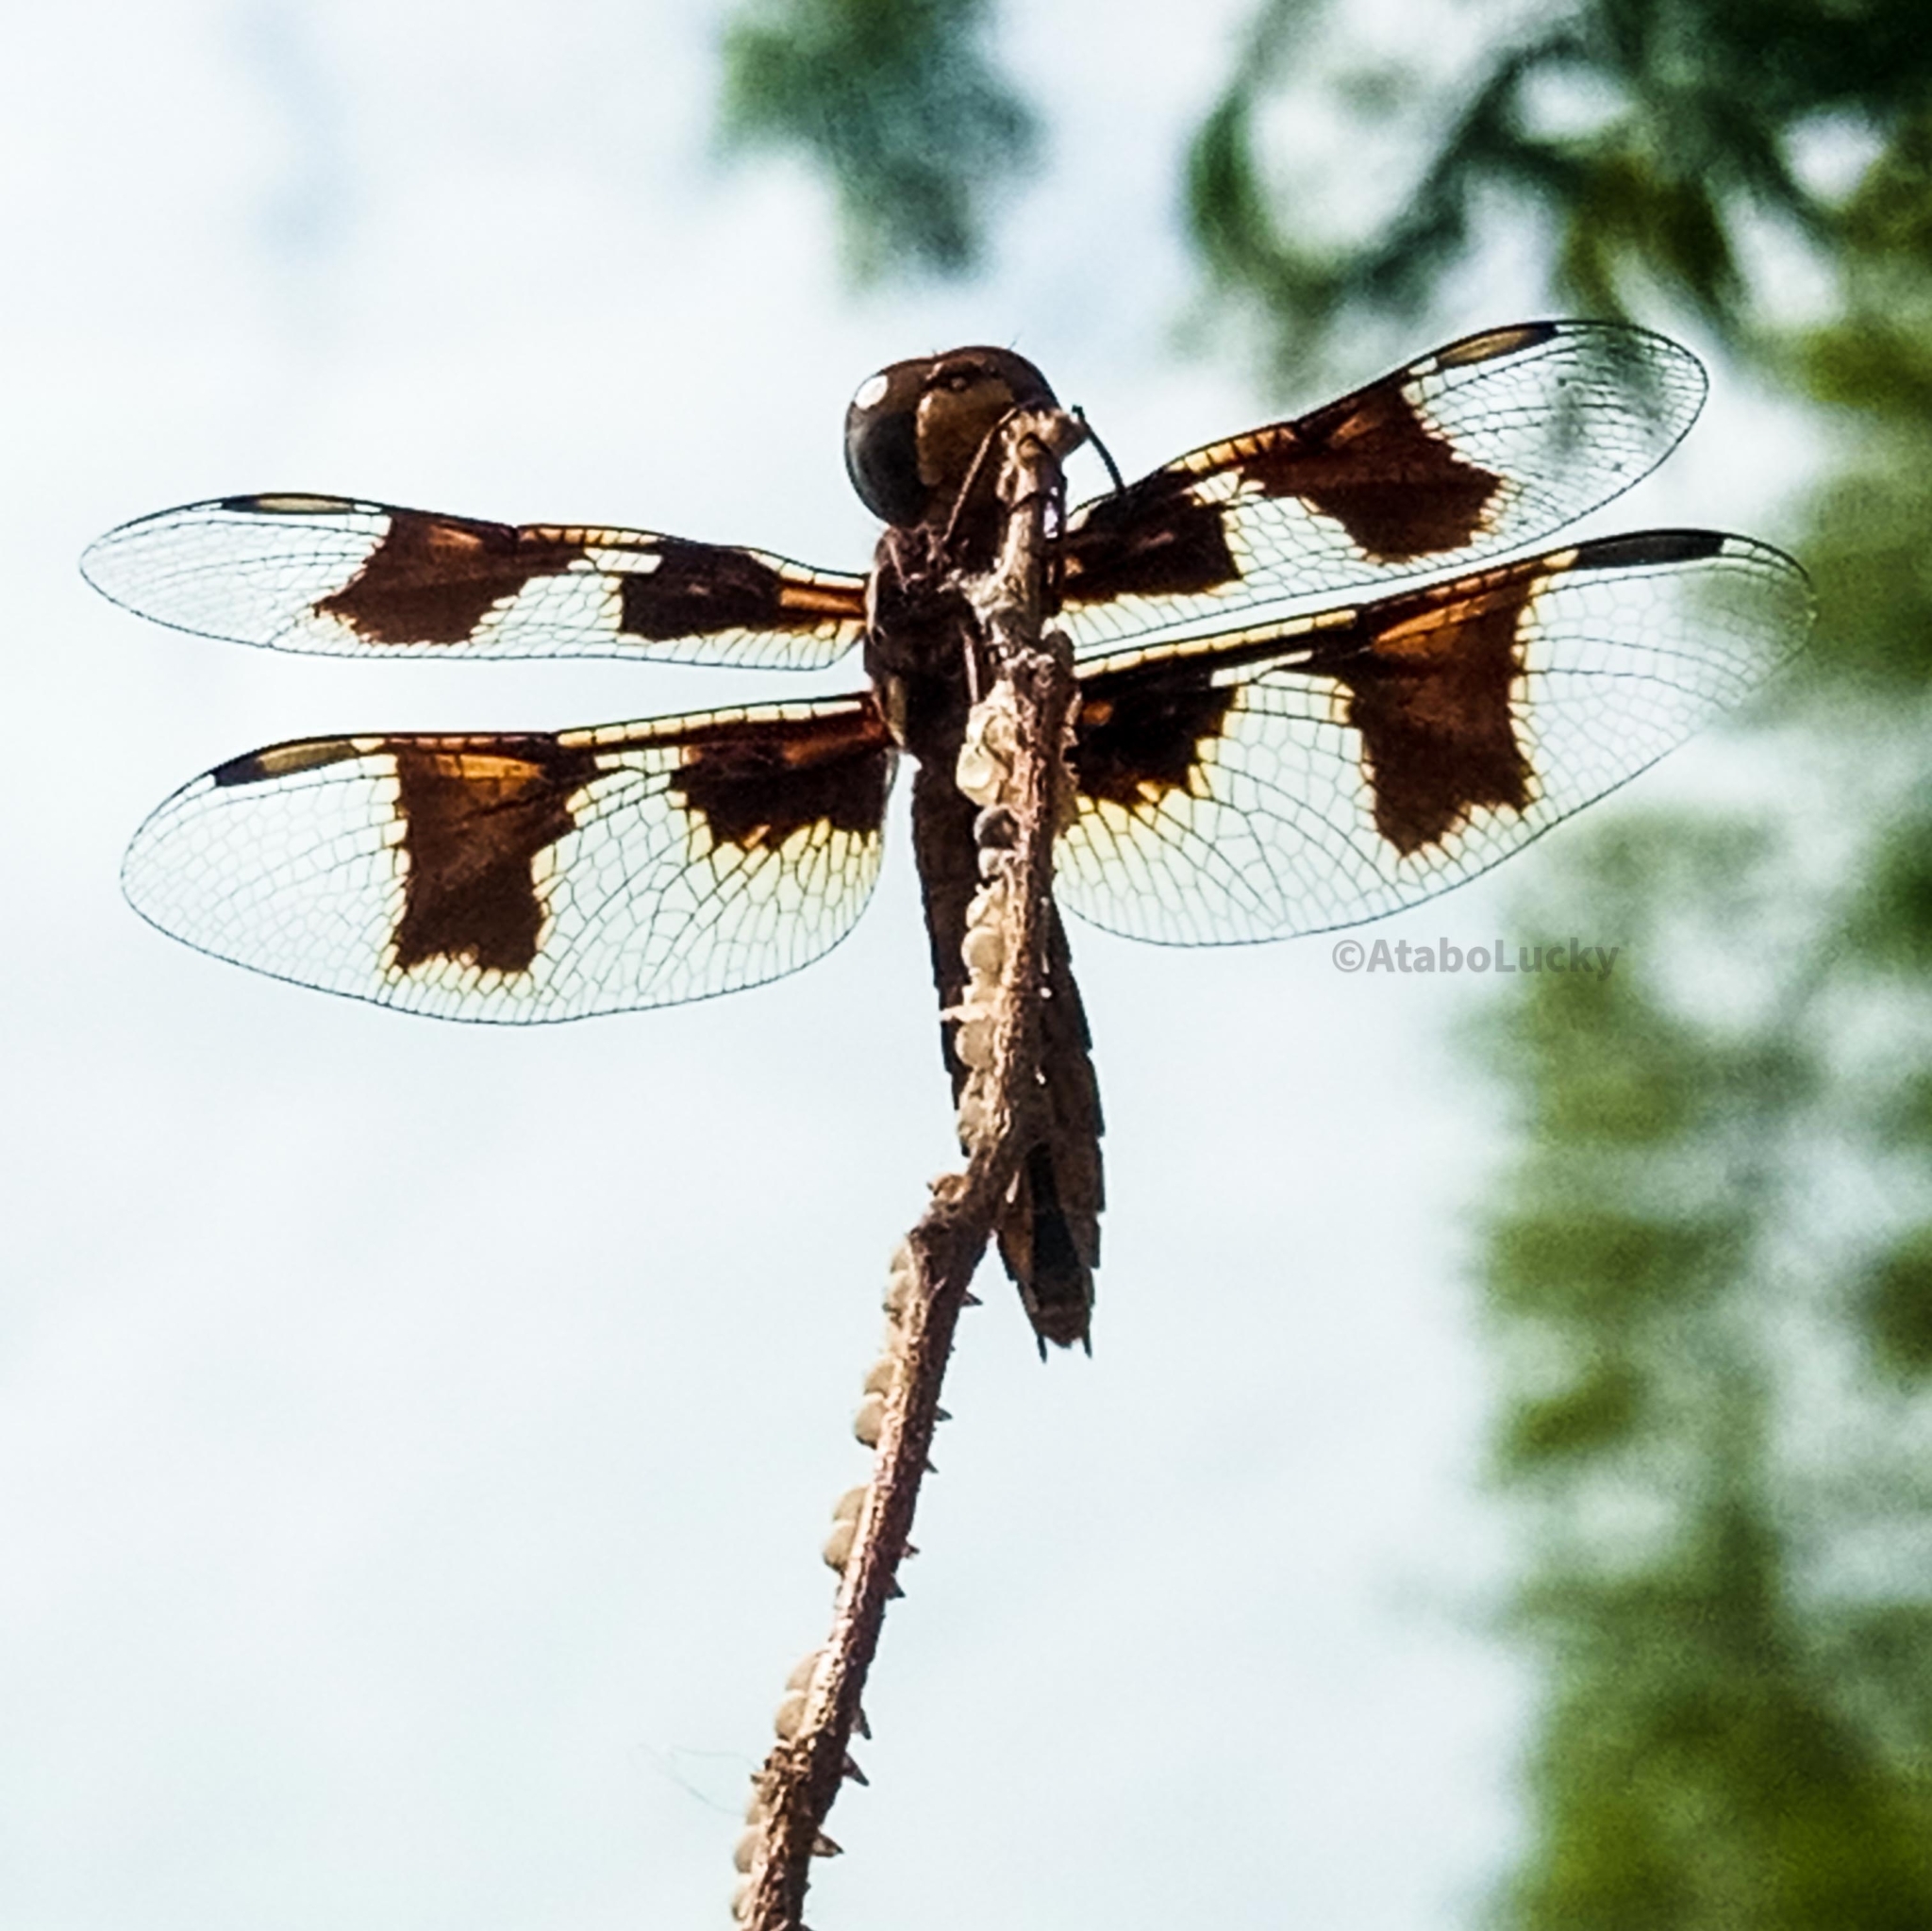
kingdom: Animalia
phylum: Arthropoda
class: Insecta
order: Odonata
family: Libellulidae
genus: Palpopleura
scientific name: Palpopleura lucia
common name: Lucia widow
